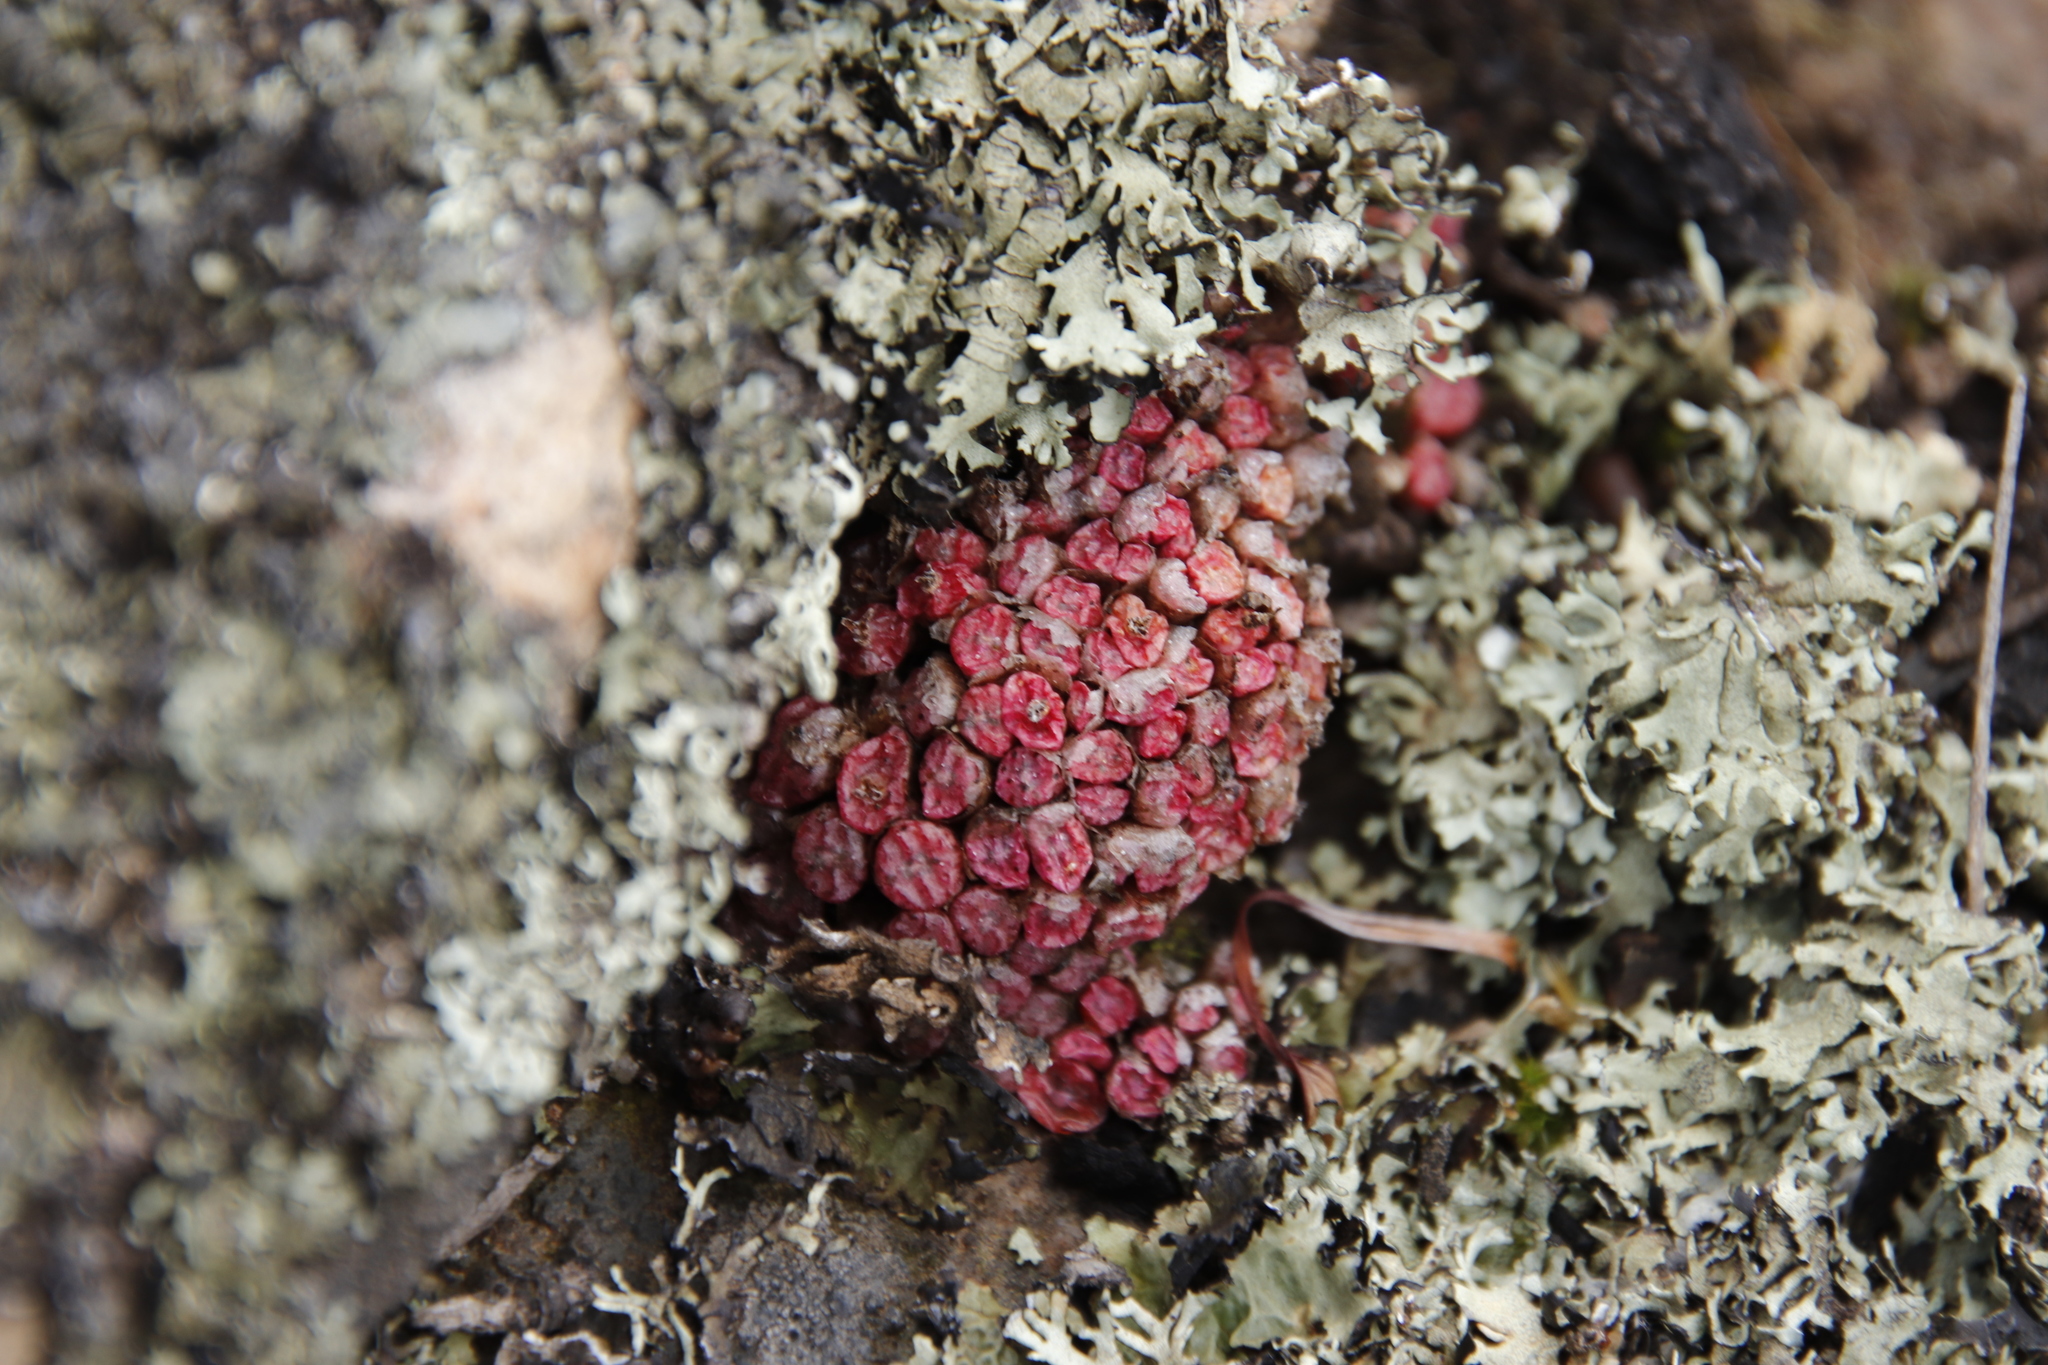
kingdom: Plantae
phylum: Tracheophyta
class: Magnoliopsida
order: Caryophyllales
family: Aizoaceae
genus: Conophytum
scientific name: Conophytum swanepoelianum
